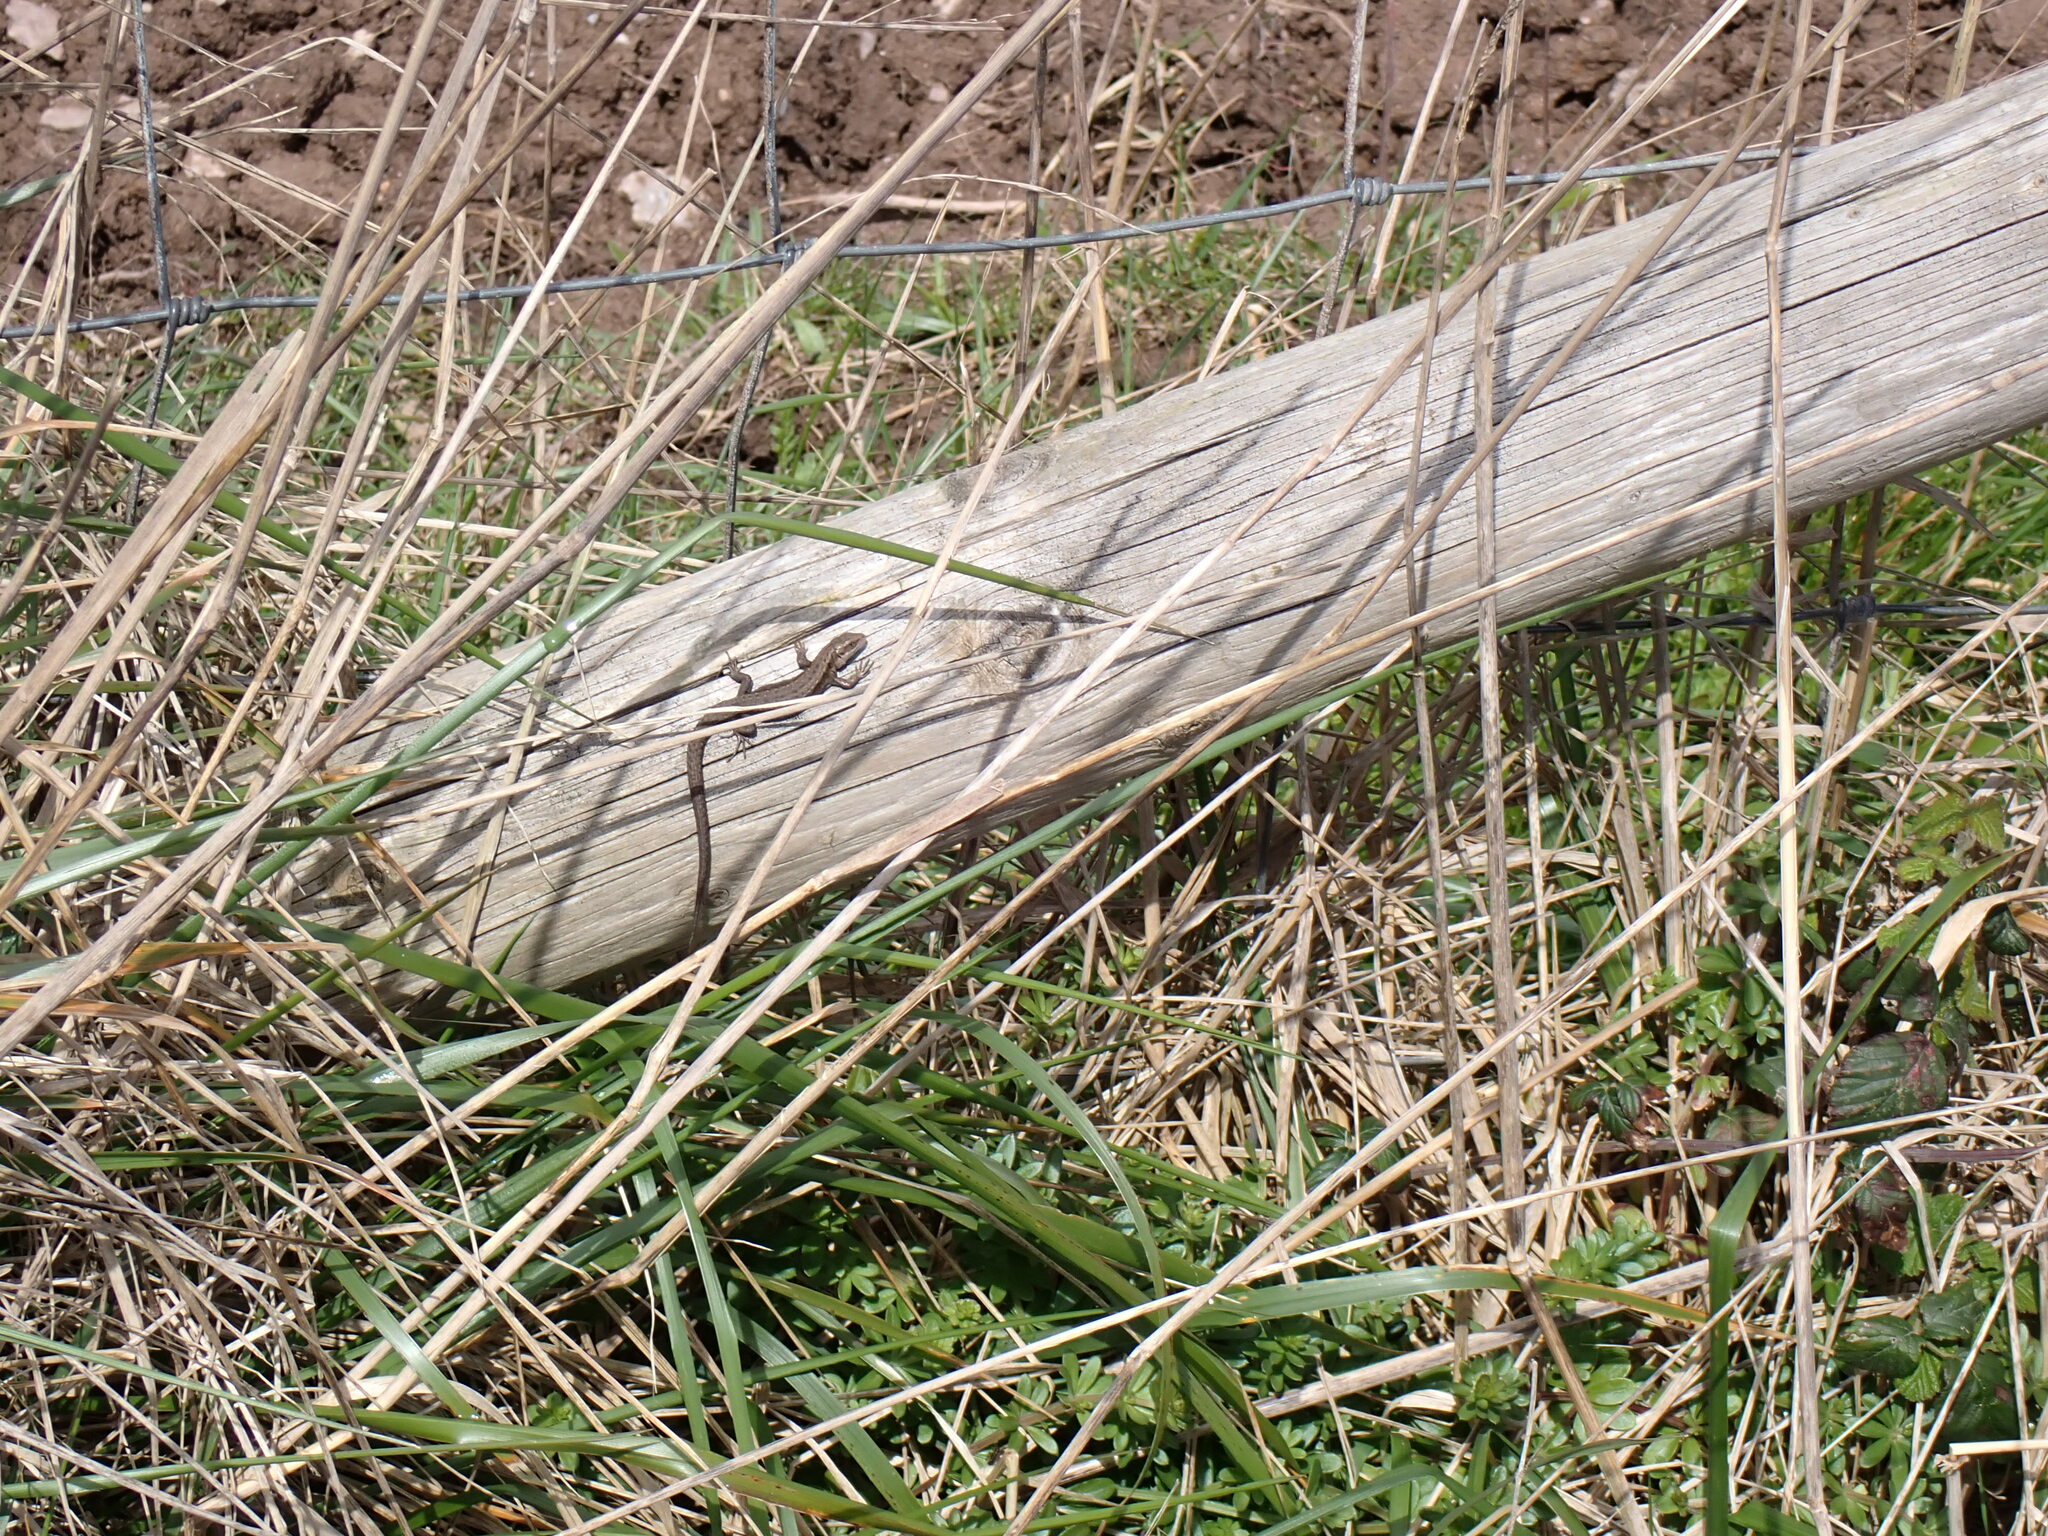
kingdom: Animalia
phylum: Chordata
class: Squamata
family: Lacertidae
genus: Zootoca
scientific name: Zootoca vivipara
